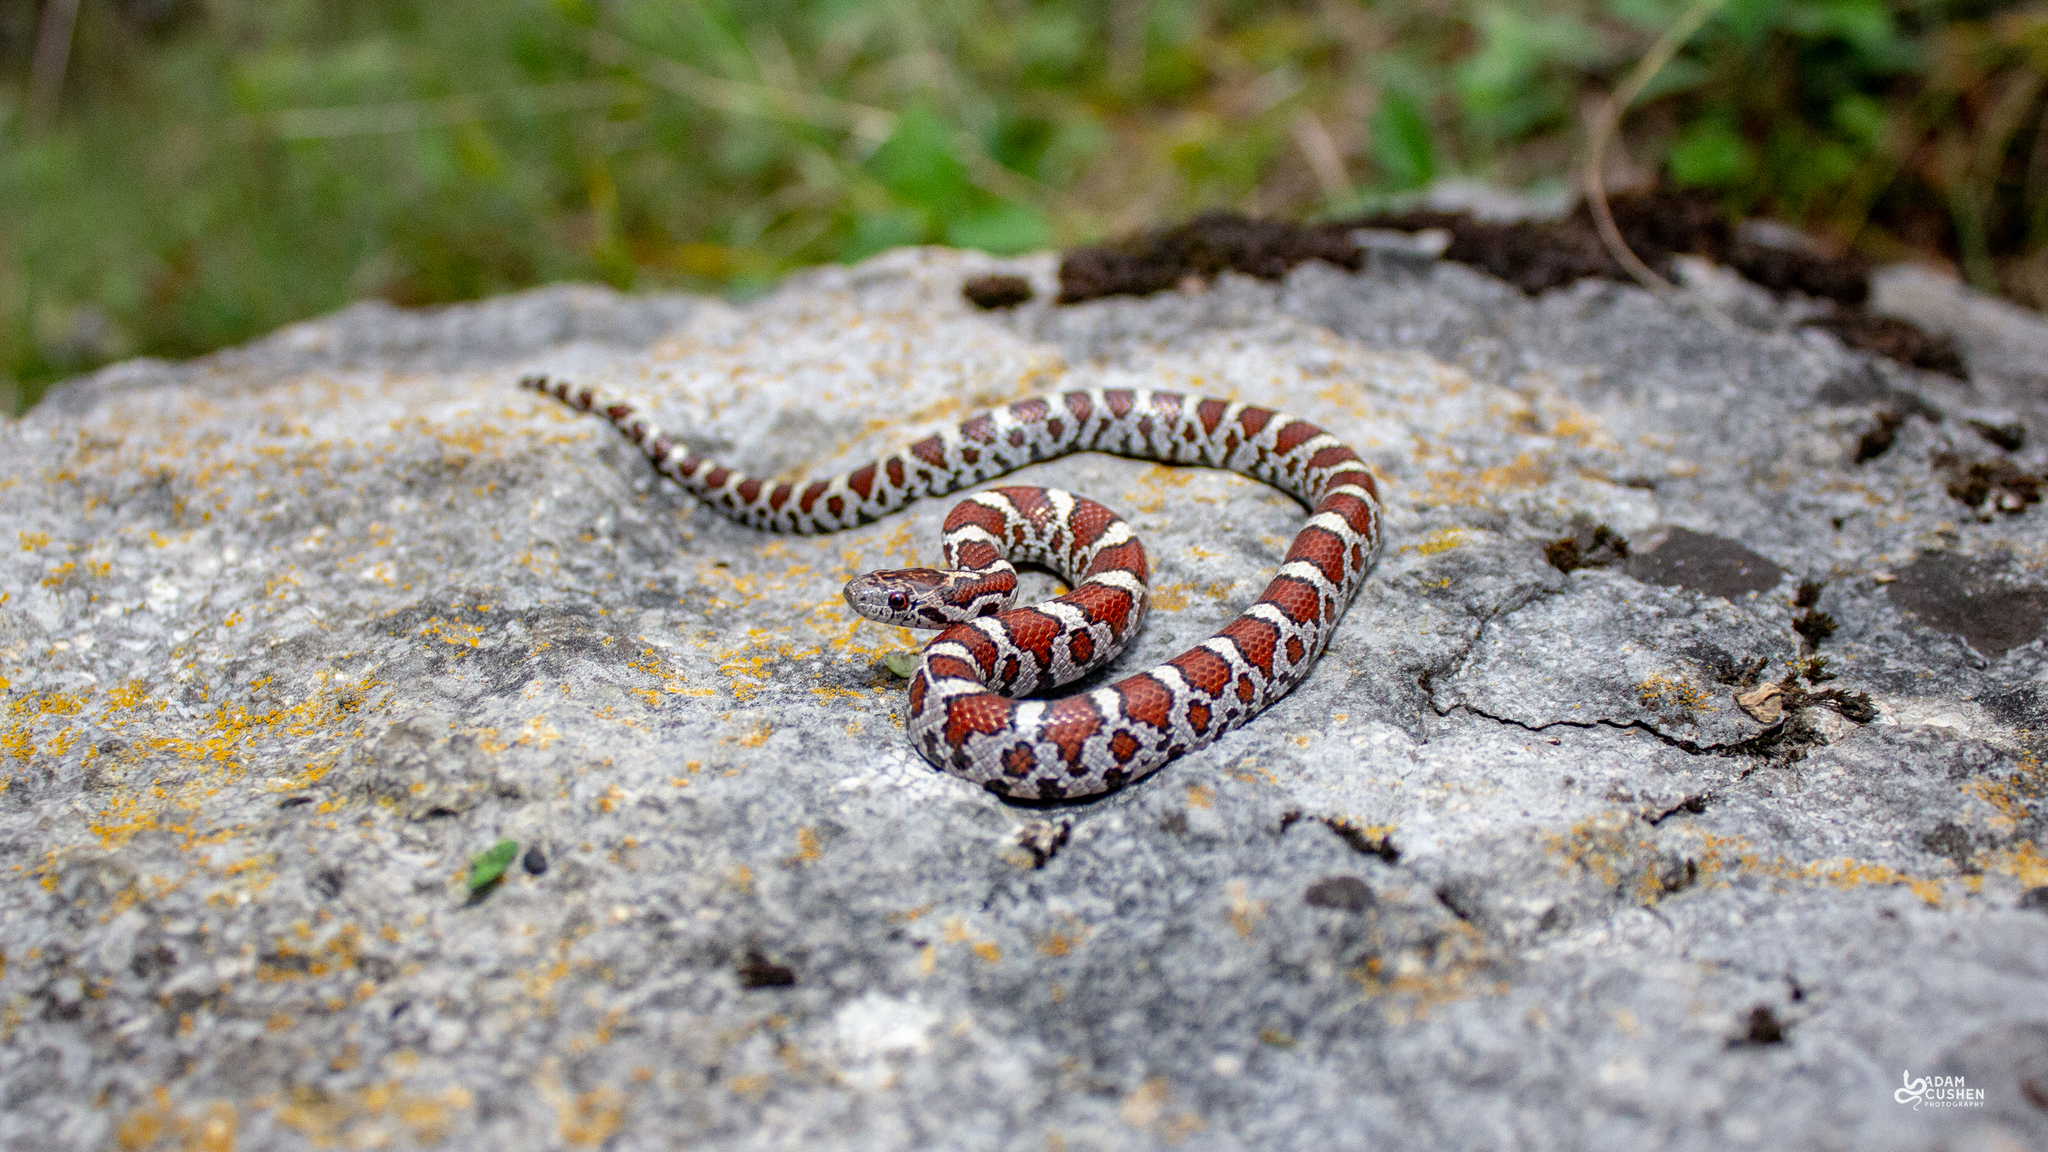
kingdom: Animalia
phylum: Chordata
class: Squamata
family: Colubridae
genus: Lampropeltis
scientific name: Lampropeltis triangulum
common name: Eastern milksnake
